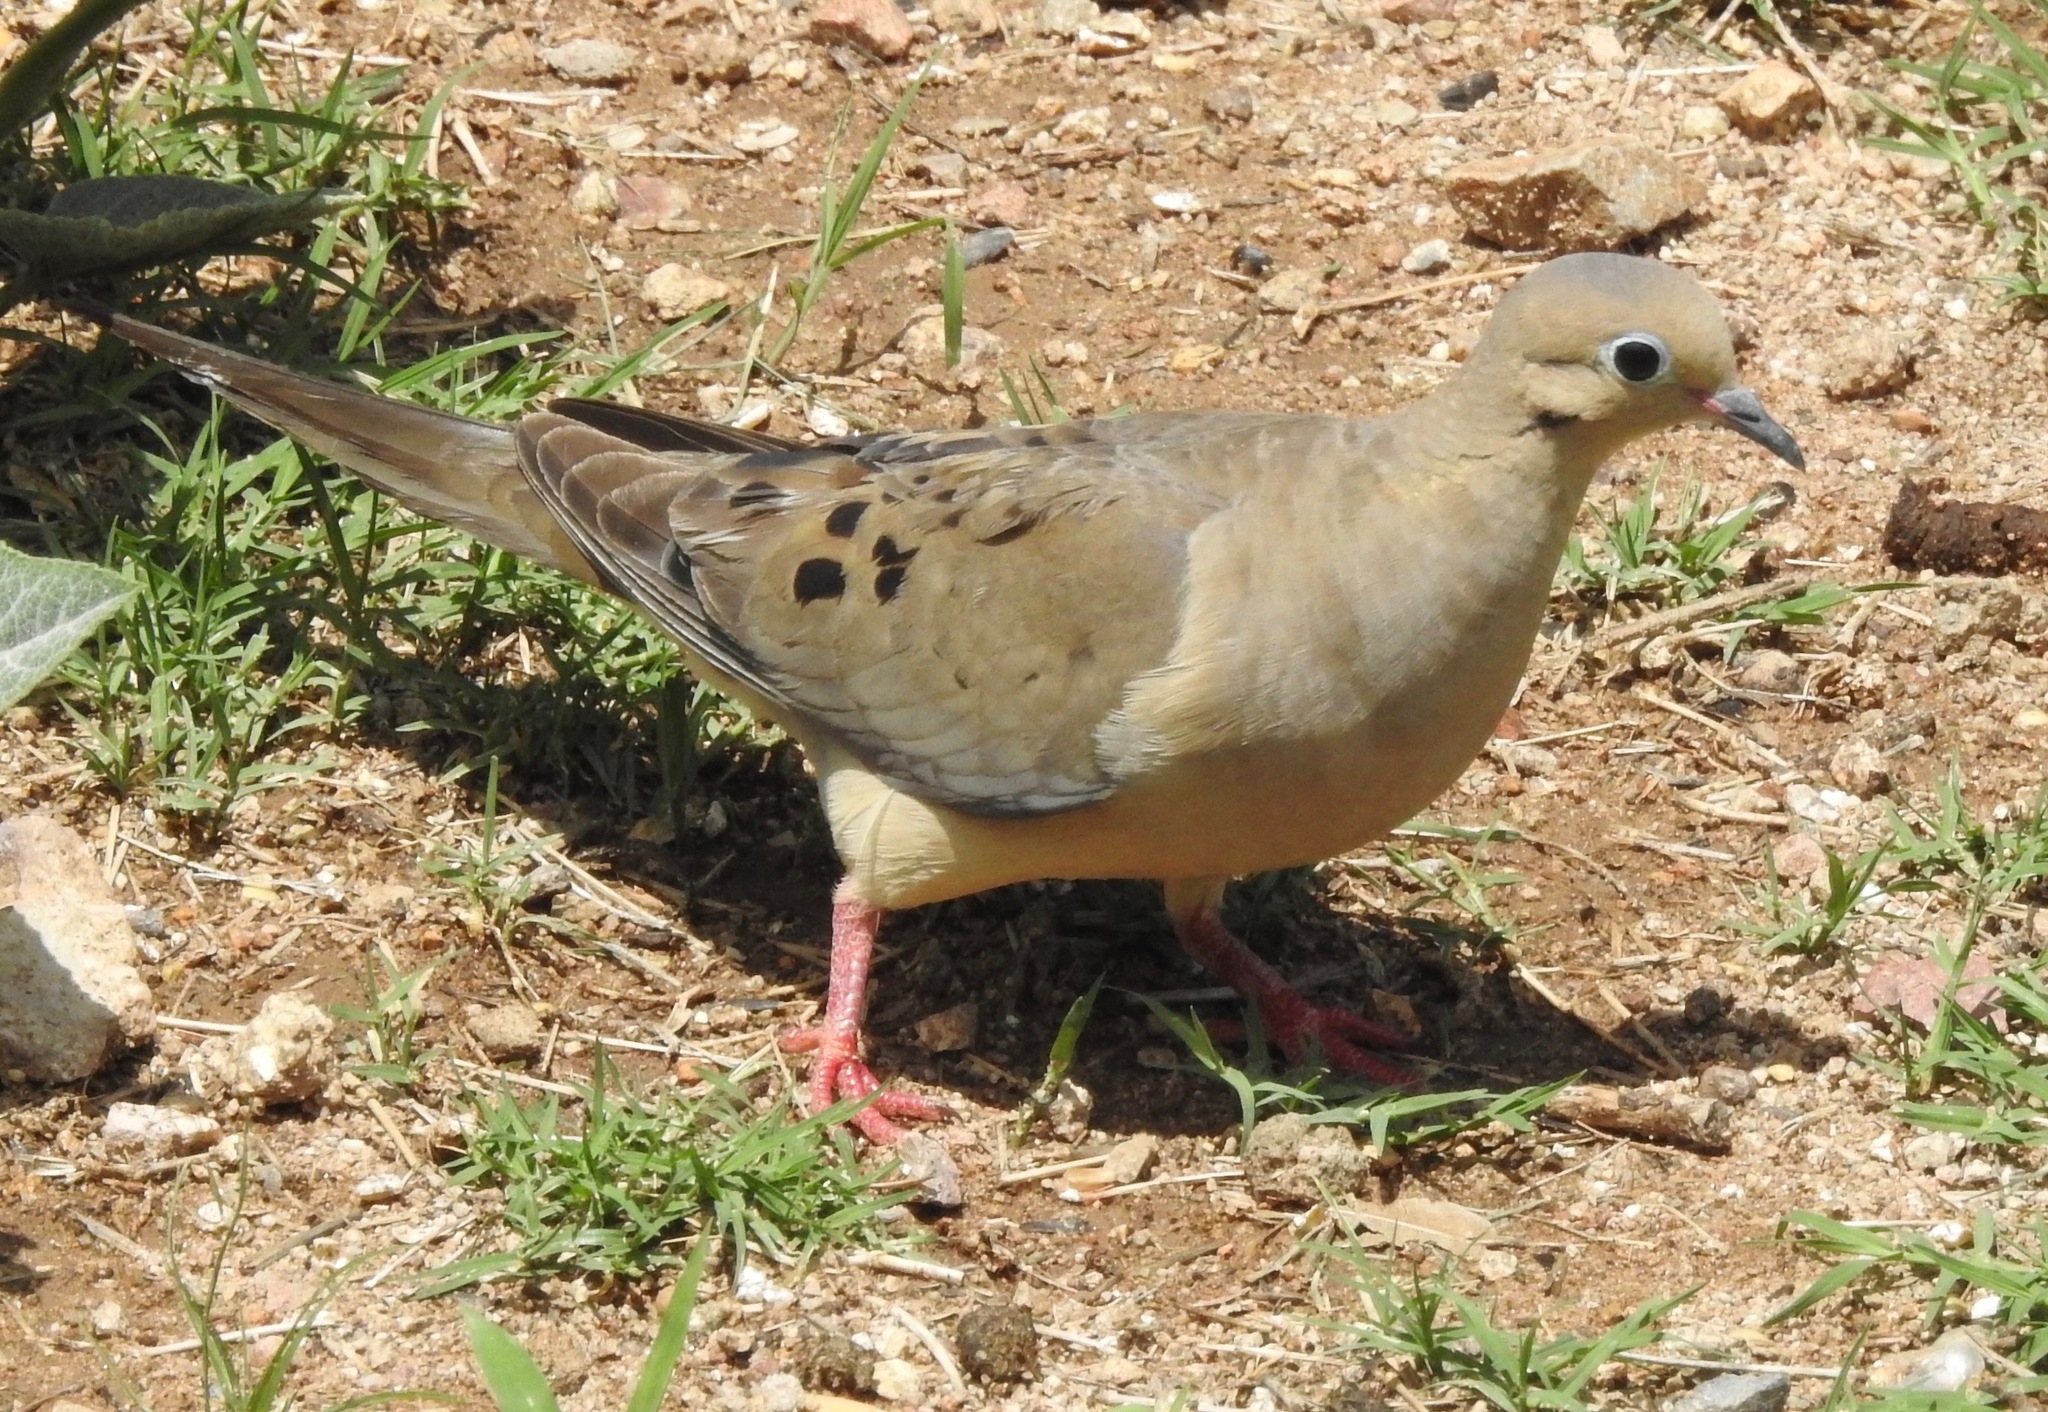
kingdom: Animalia
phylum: Chordata
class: Aves
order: Columbiformes
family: Columbidae
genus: Zenaida
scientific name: Zenaida macroura
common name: Mourning dove
